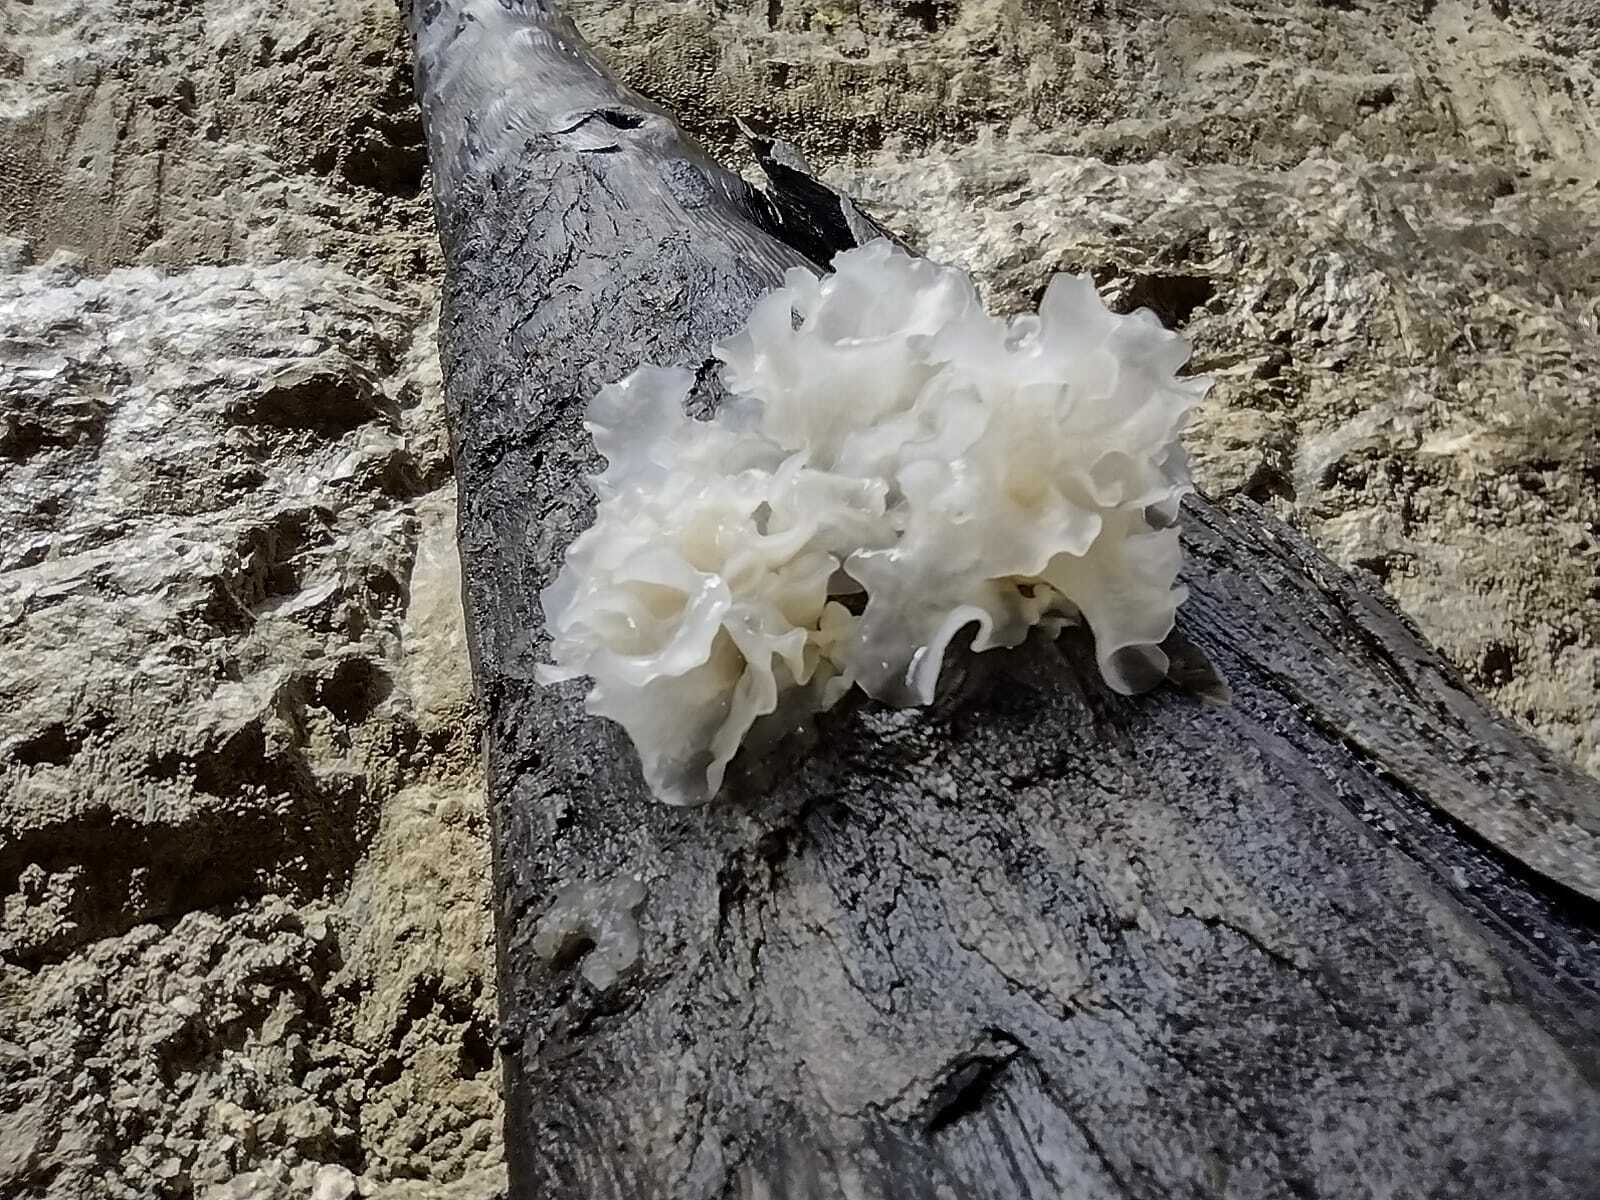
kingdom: Fungi
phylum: Basidiomycota
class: Tremellomycetes
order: Tremellales
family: Tremellaceae
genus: Tremella
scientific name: Tremella fuciformis
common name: Snow fungus
